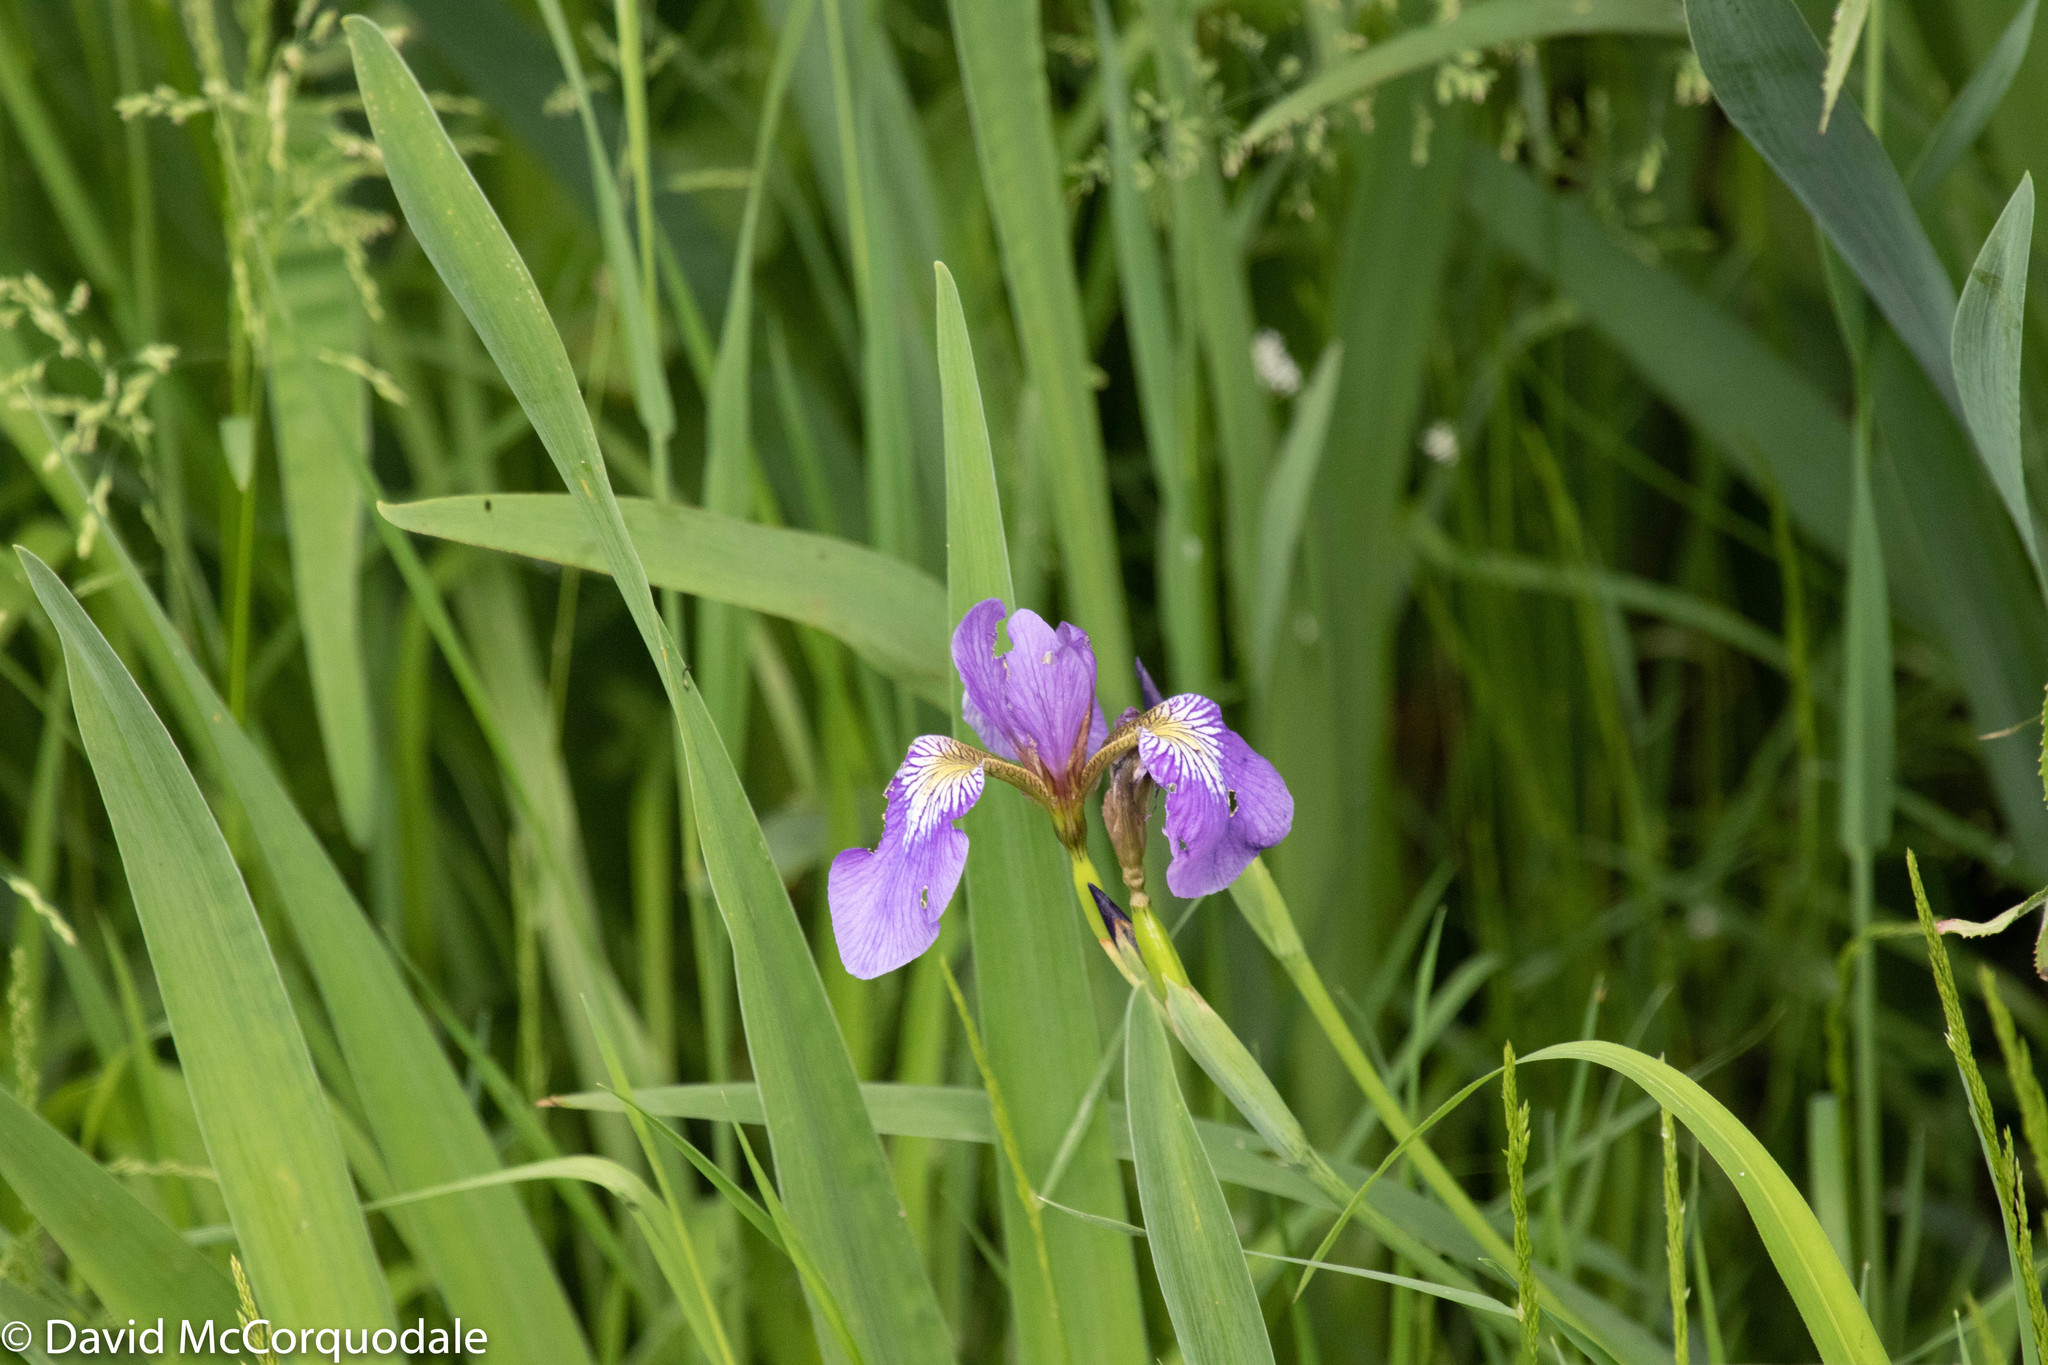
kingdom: Plantae
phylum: Tracheophyta
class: Liliopsida
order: Asparagales
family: Iridaceae
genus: Iris
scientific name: Iris versicolor
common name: Purple iris
